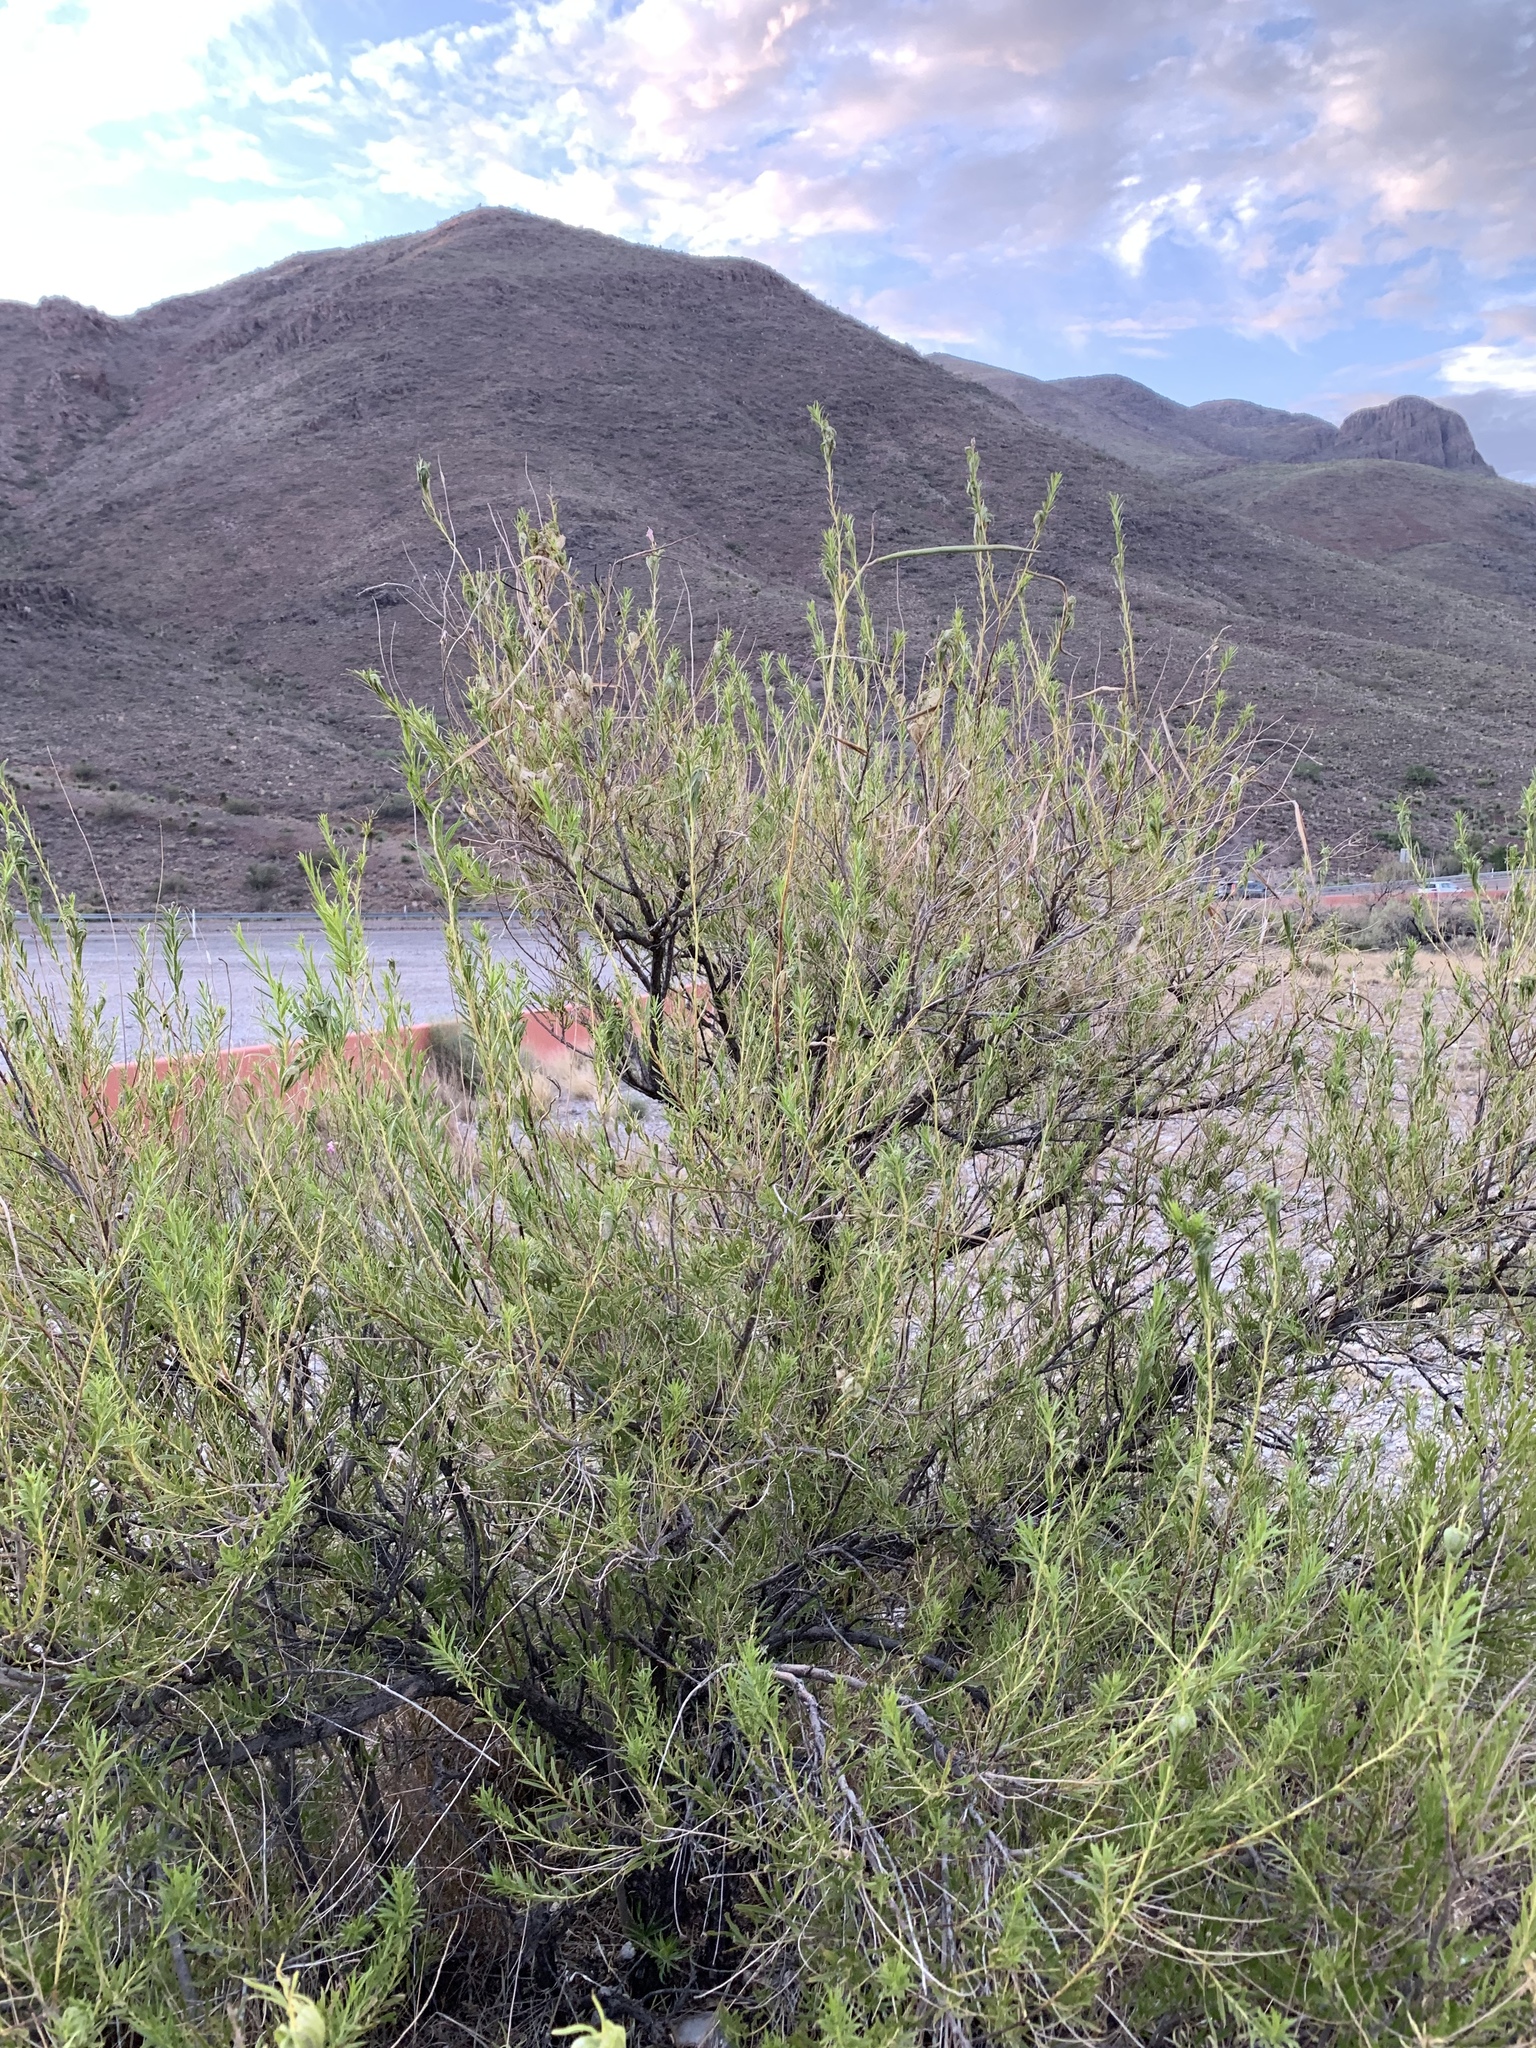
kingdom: Plantae
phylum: Tracheophyta
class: Magnoliopsida
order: Lamiales
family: Bignoniaceae
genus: Chilopsis
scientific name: Chilopsis linearis
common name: Desert-willow
